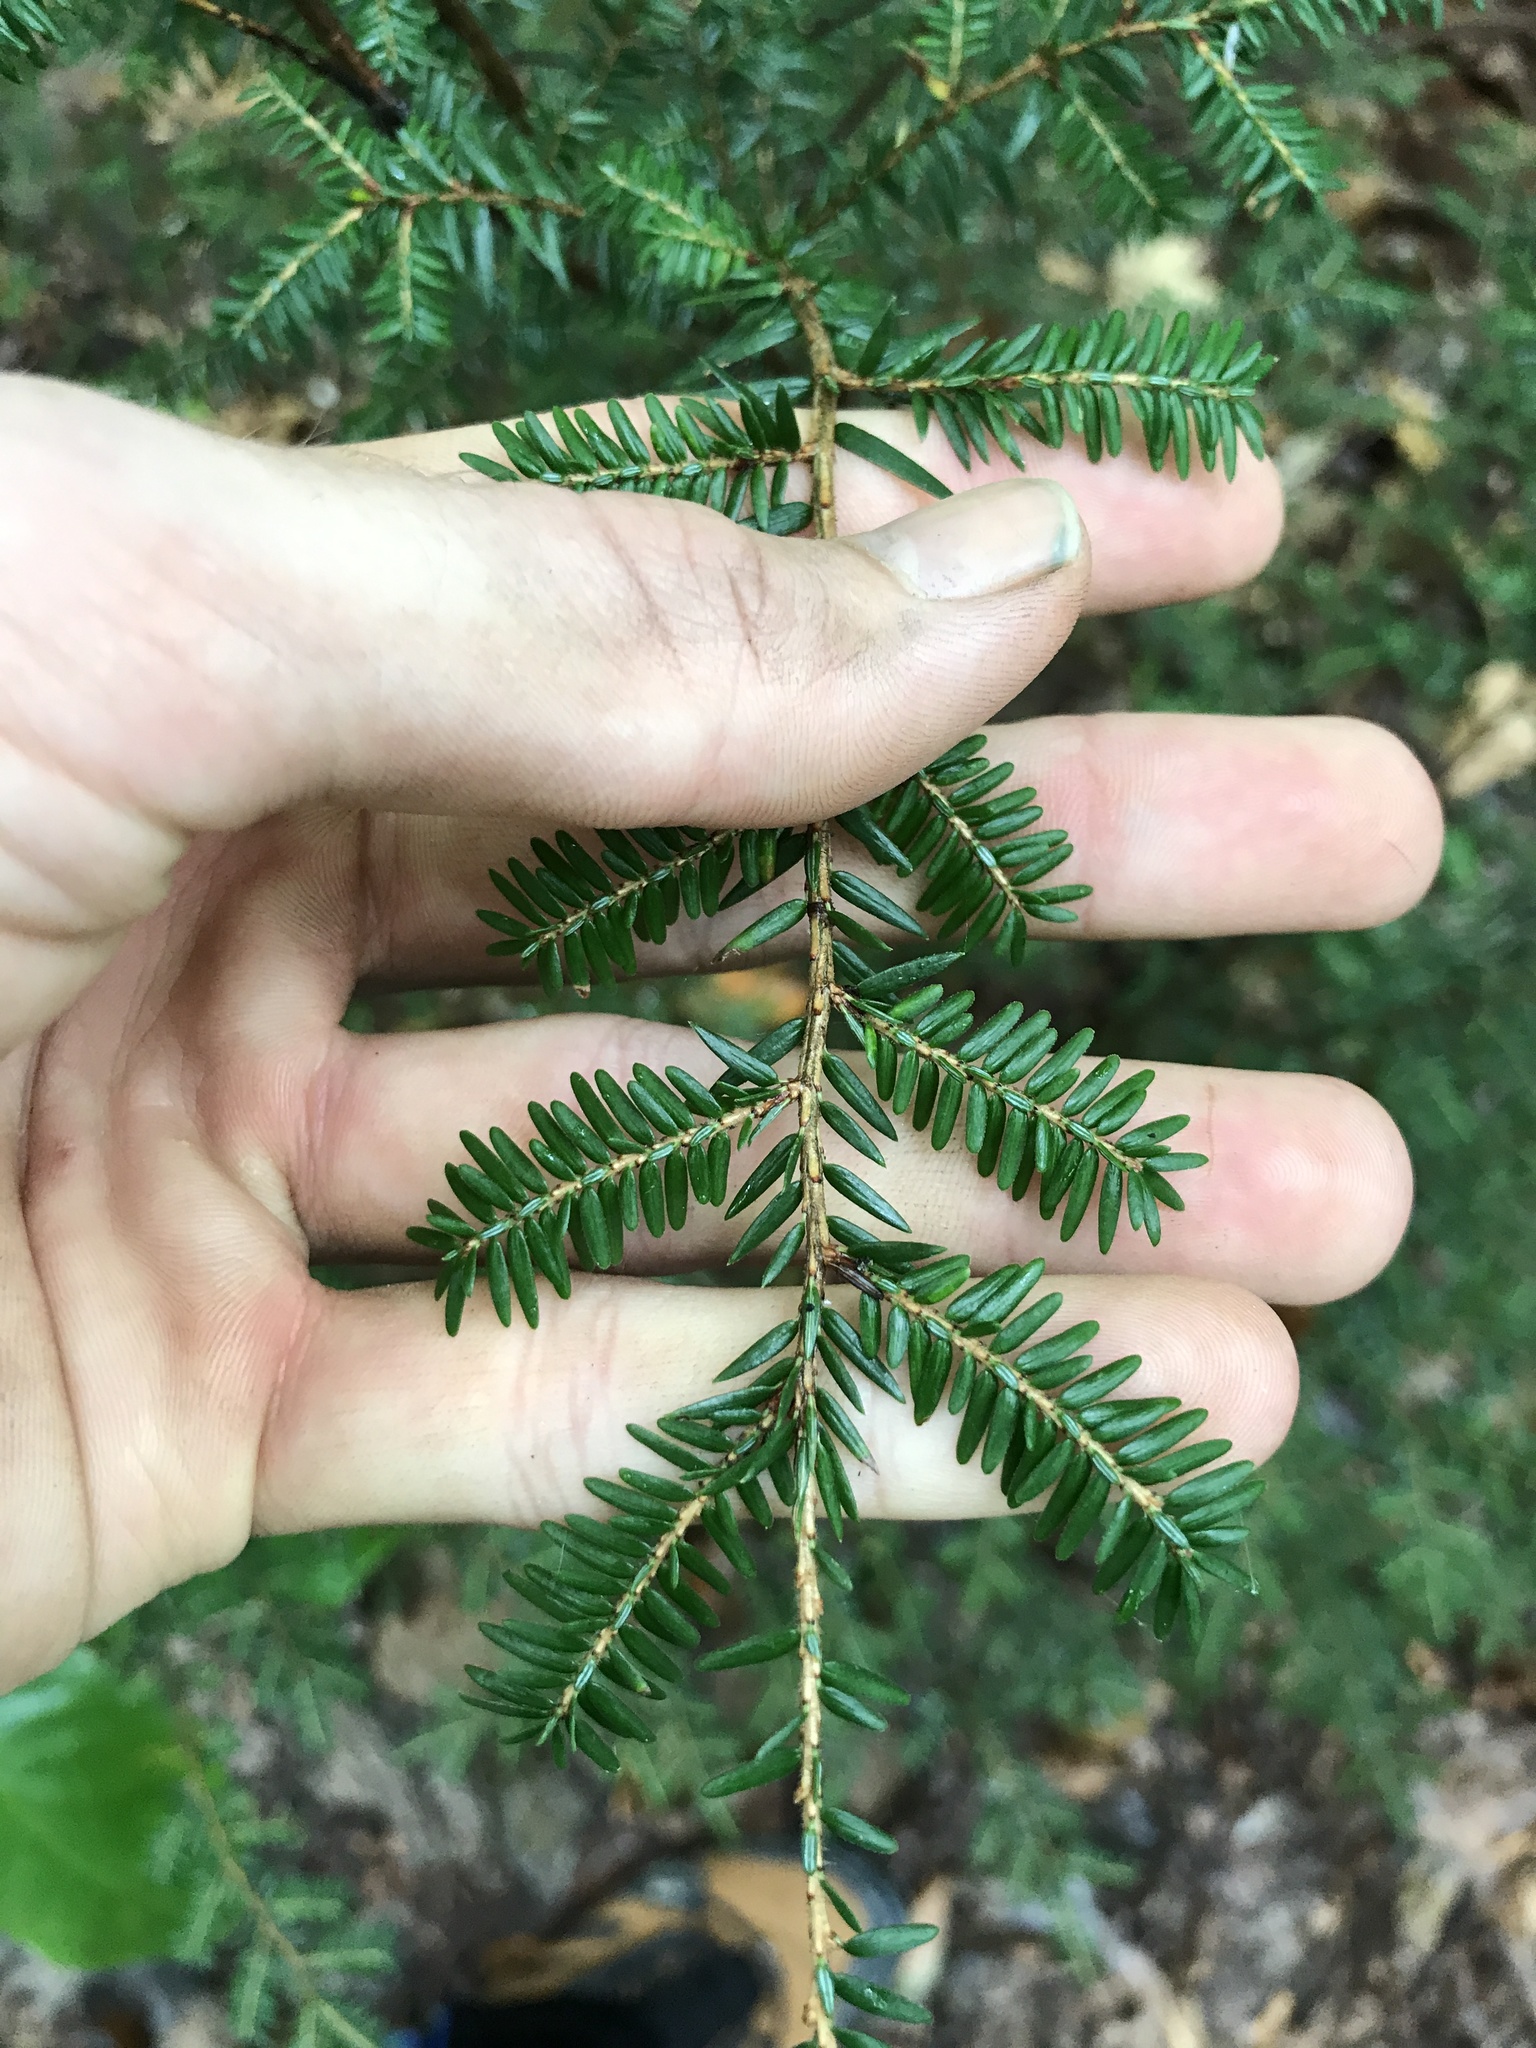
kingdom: Plantae
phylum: Tracheophyta
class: Pinopsida
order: Pinales
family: Pinaceae
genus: Tsuga
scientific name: Tsuga canadensis
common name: Eastern hemlock
